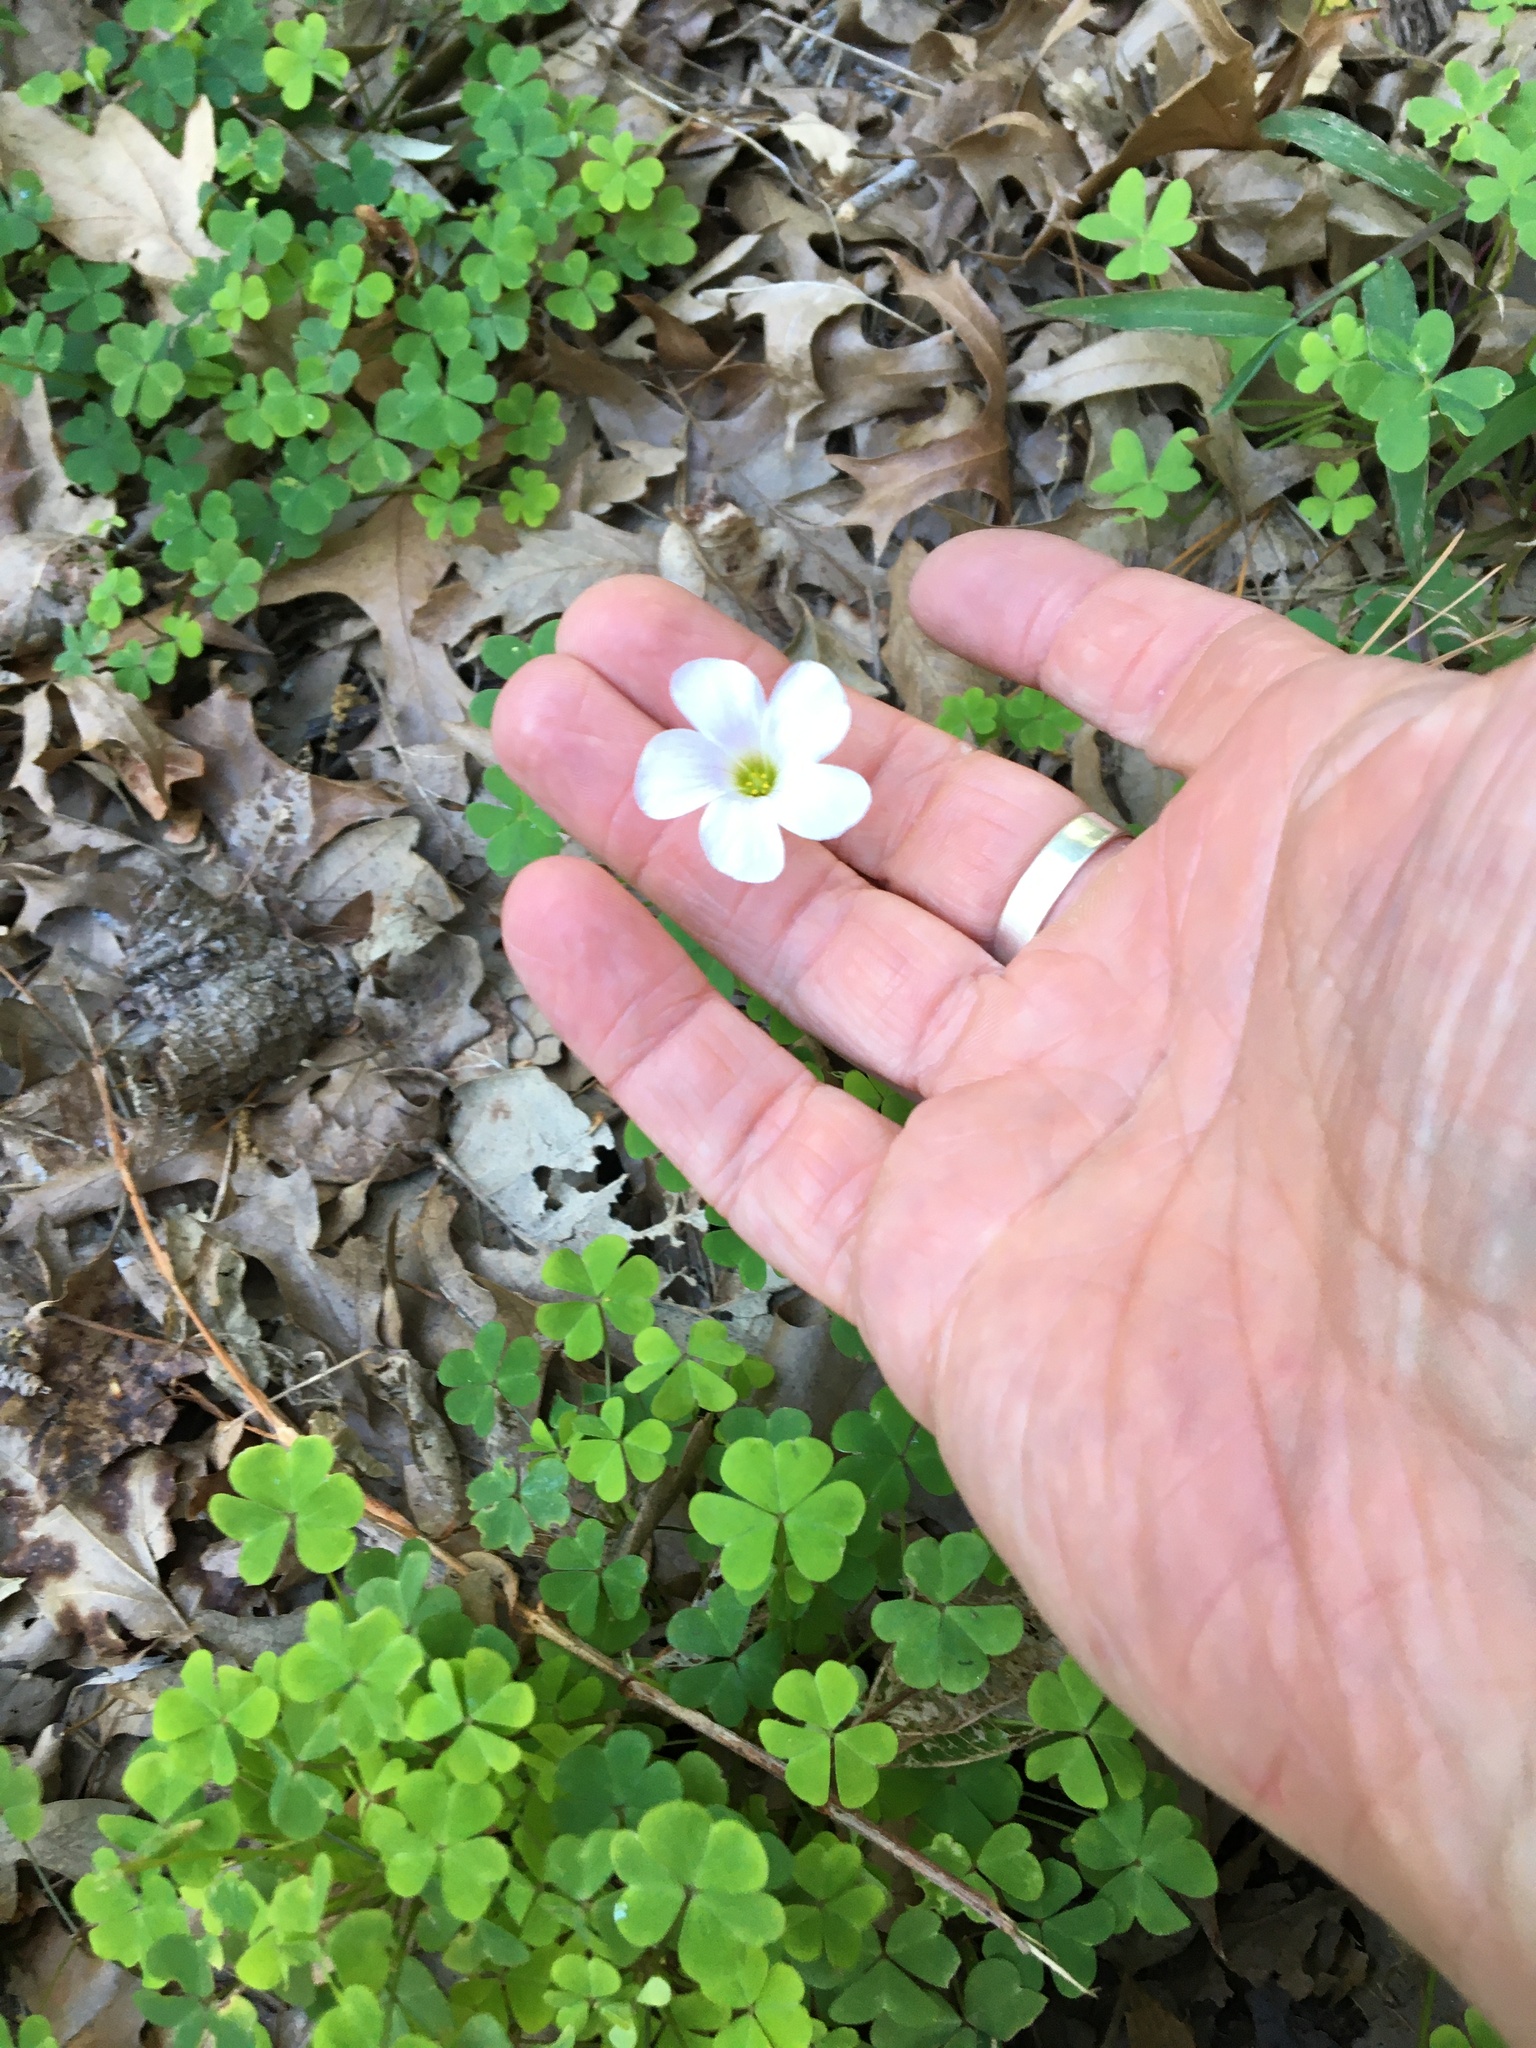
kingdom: Plantae
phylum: Tracheophyta
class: Magnoliopsida
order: Oxalidales
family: Oxalidaceae
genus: Oxalis
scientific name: Oxalis incarnata
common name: Pale pink-sorrel
